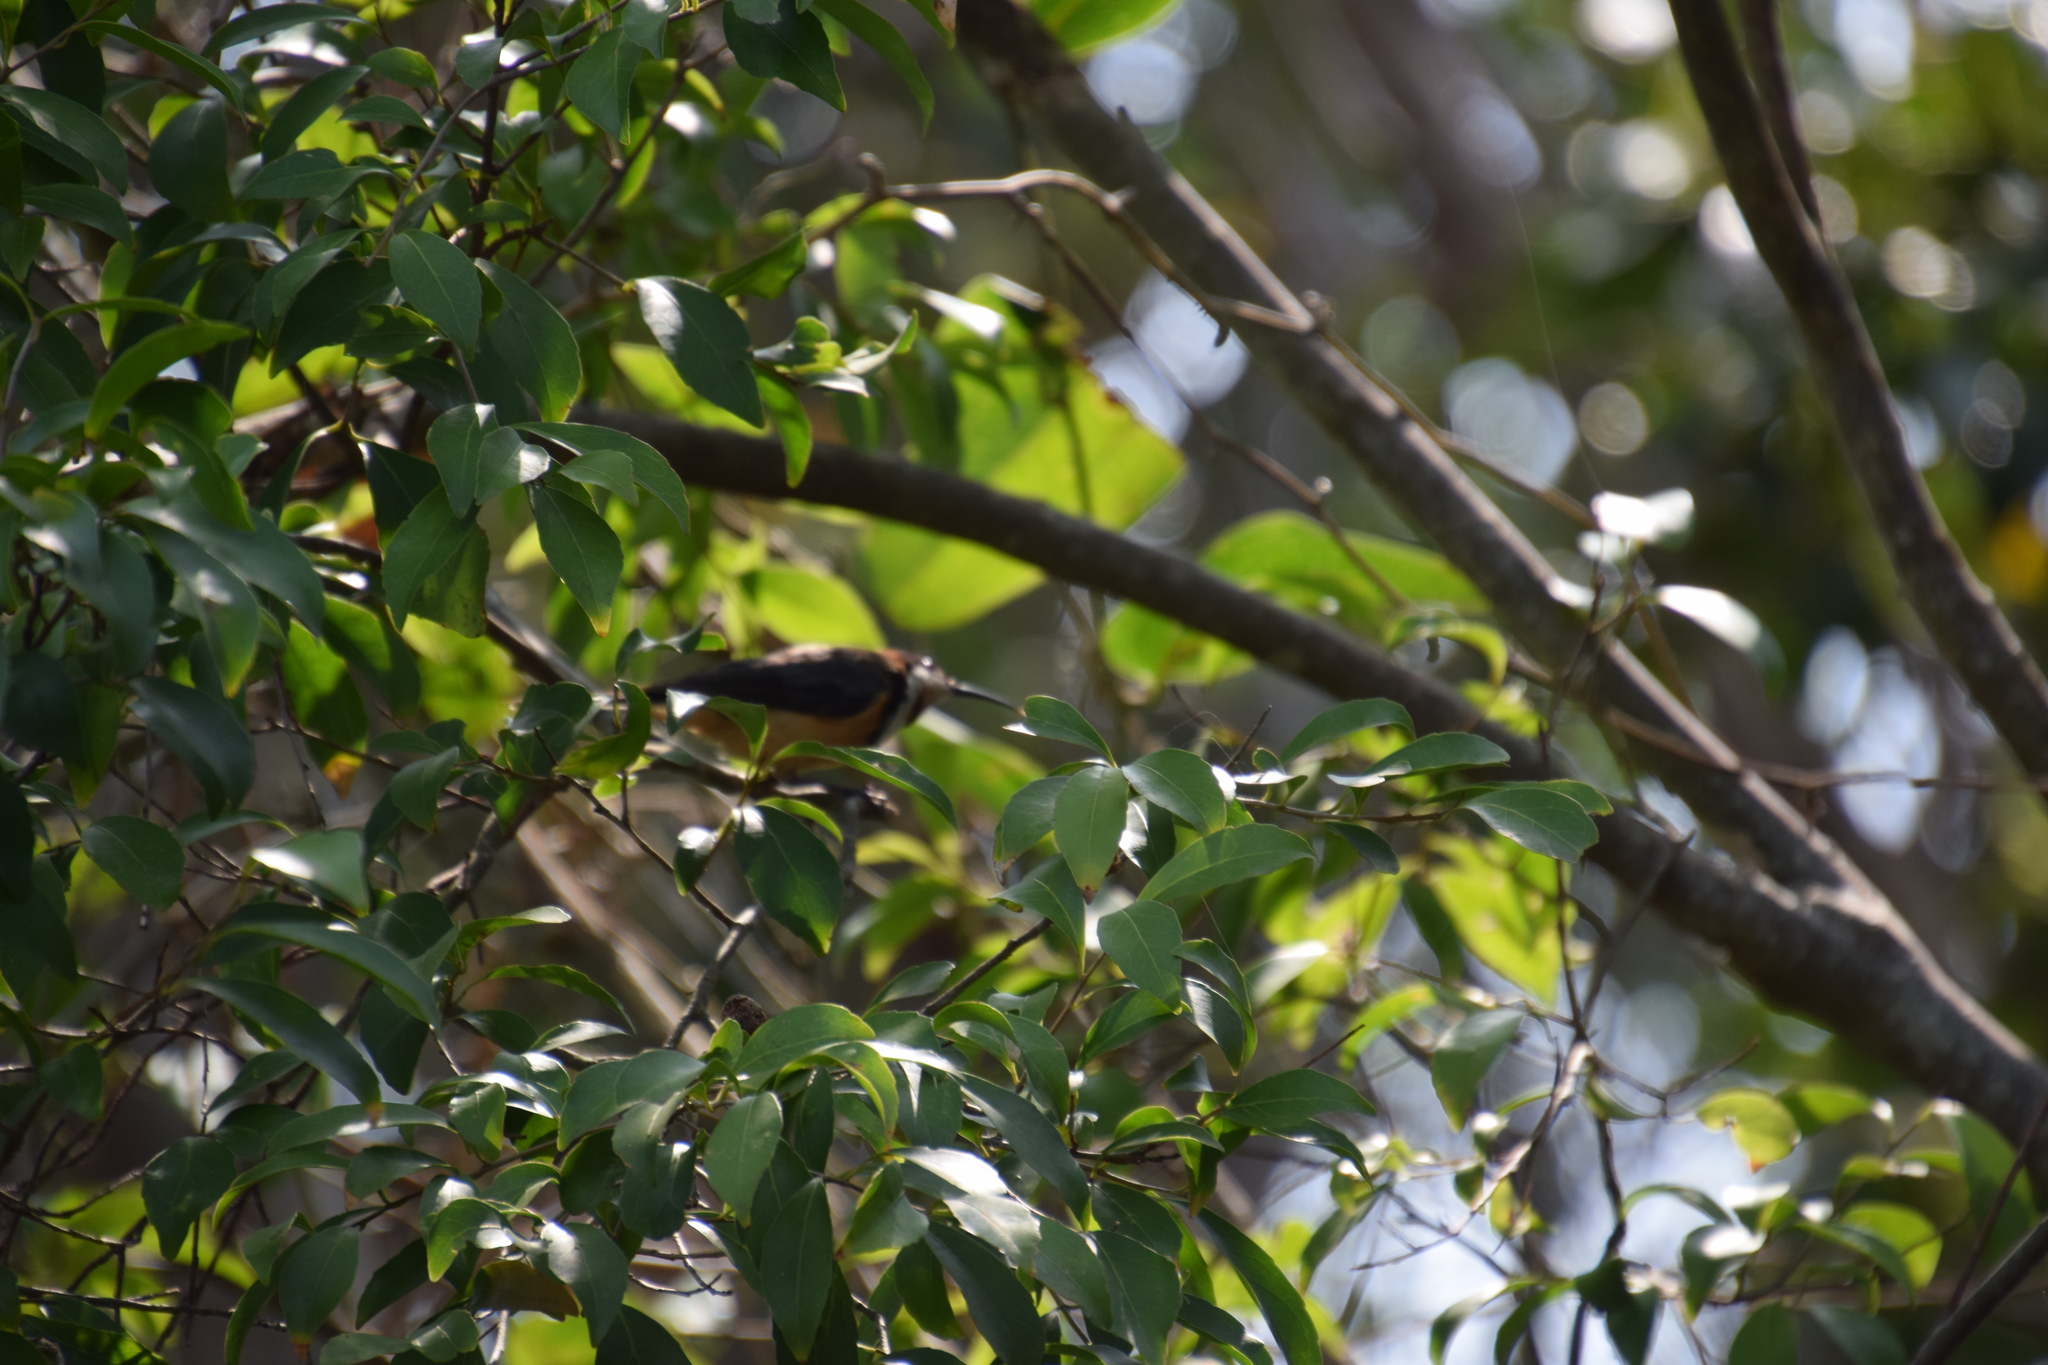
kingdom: Animalia
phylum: Chordata
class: Aves
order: Passeriformes
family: Meliphagidae
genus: Acanthorhynchus
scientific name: Acanthorhynchus tenuirostris
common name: Eastern spinebill
